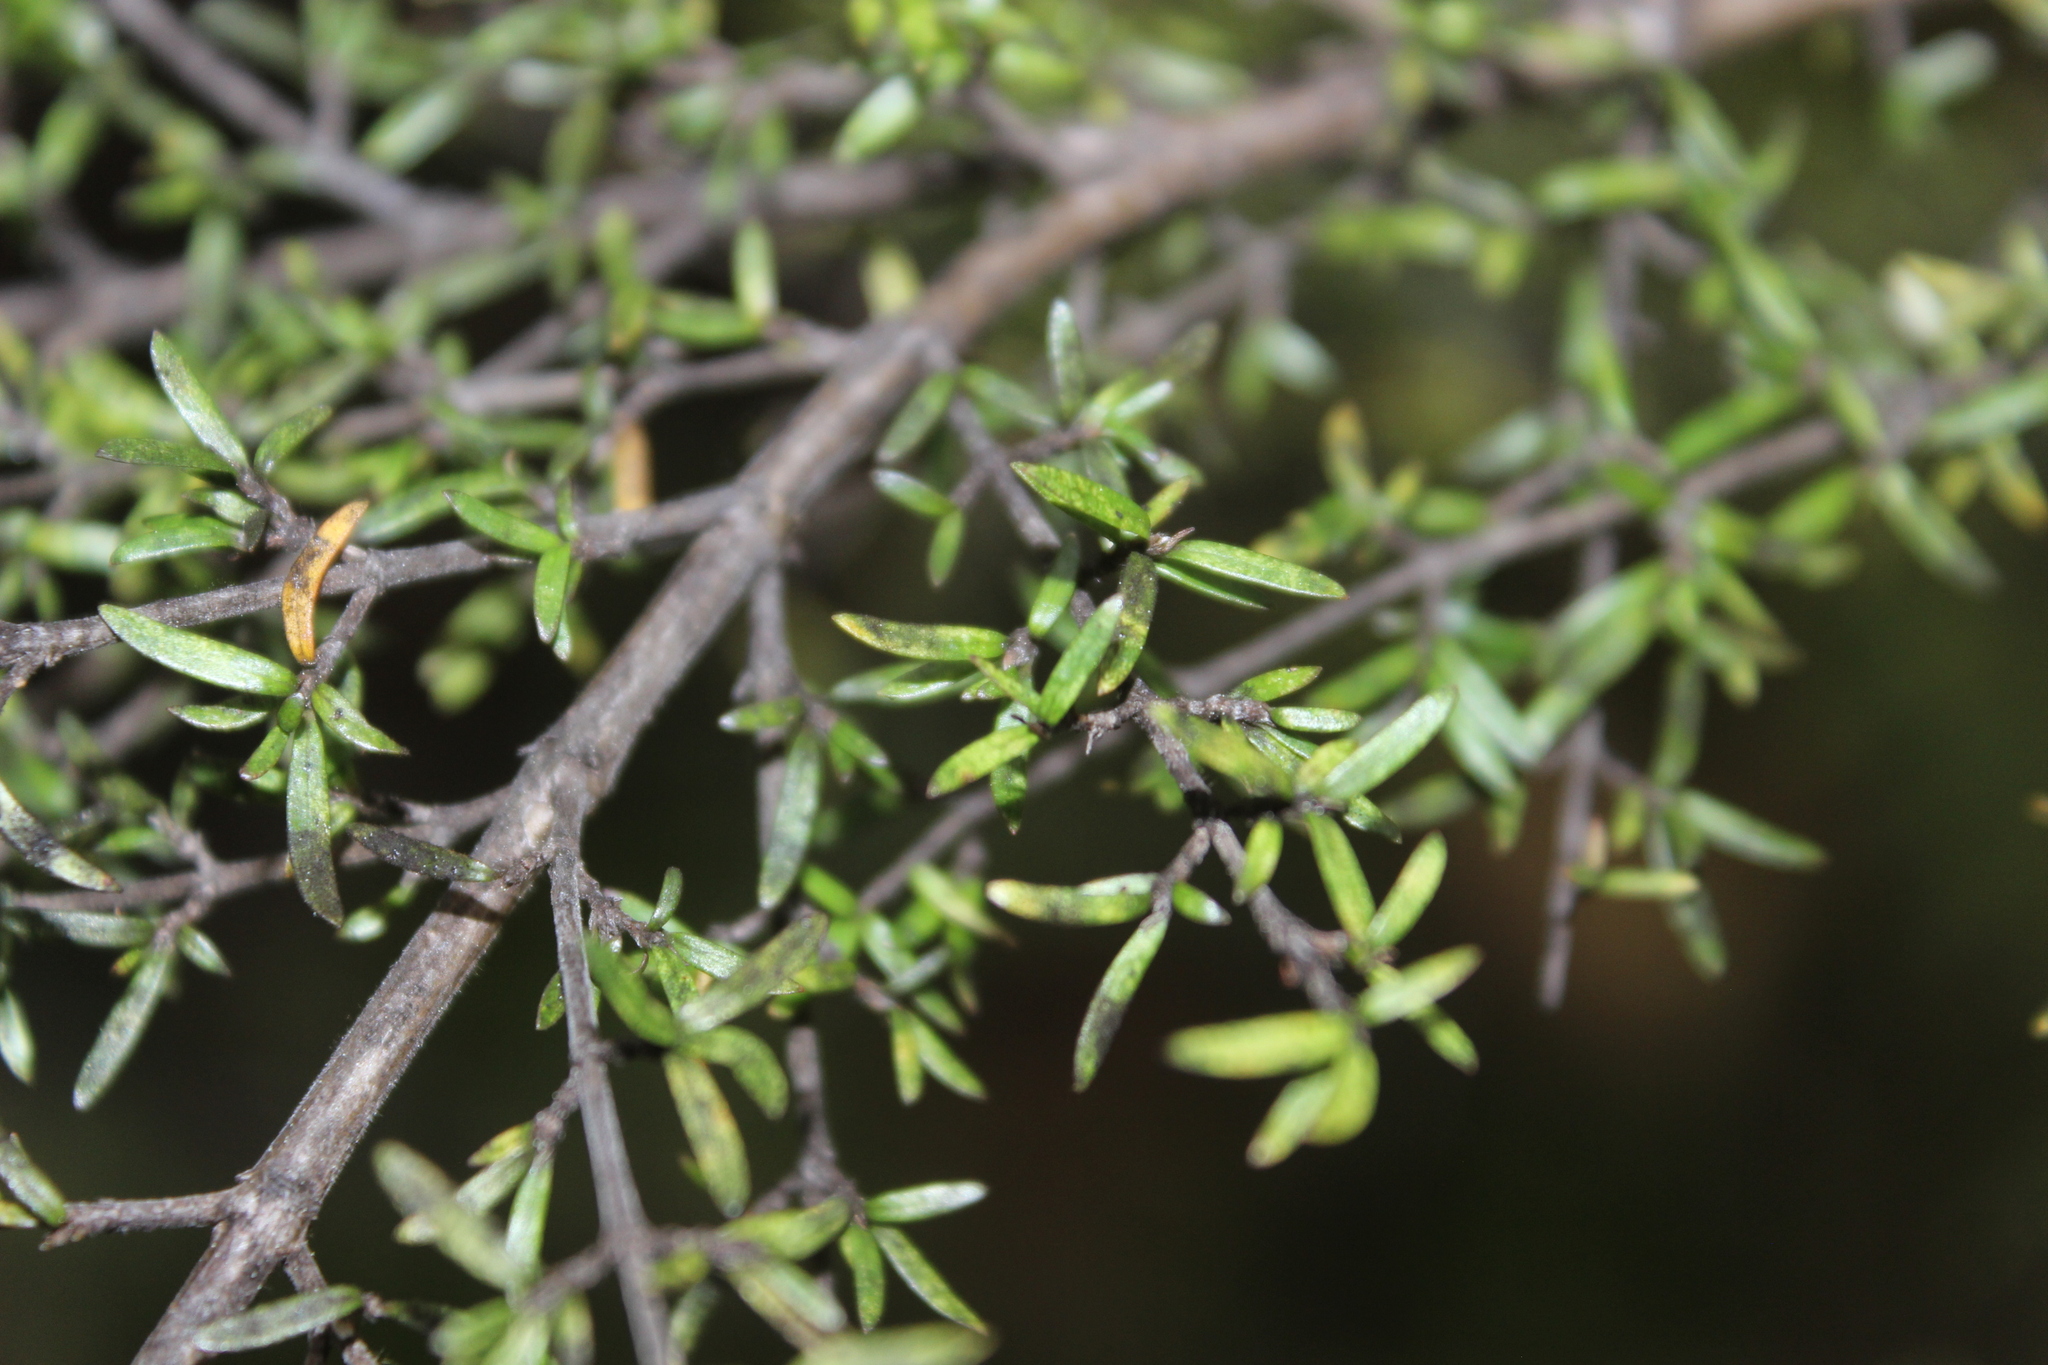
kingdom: Plantae
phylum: Tracheophyta
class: Magnoliopsida
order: Gentianales
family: Rubiaceae
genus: Coprosma
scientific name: Coprosma microcarpa
